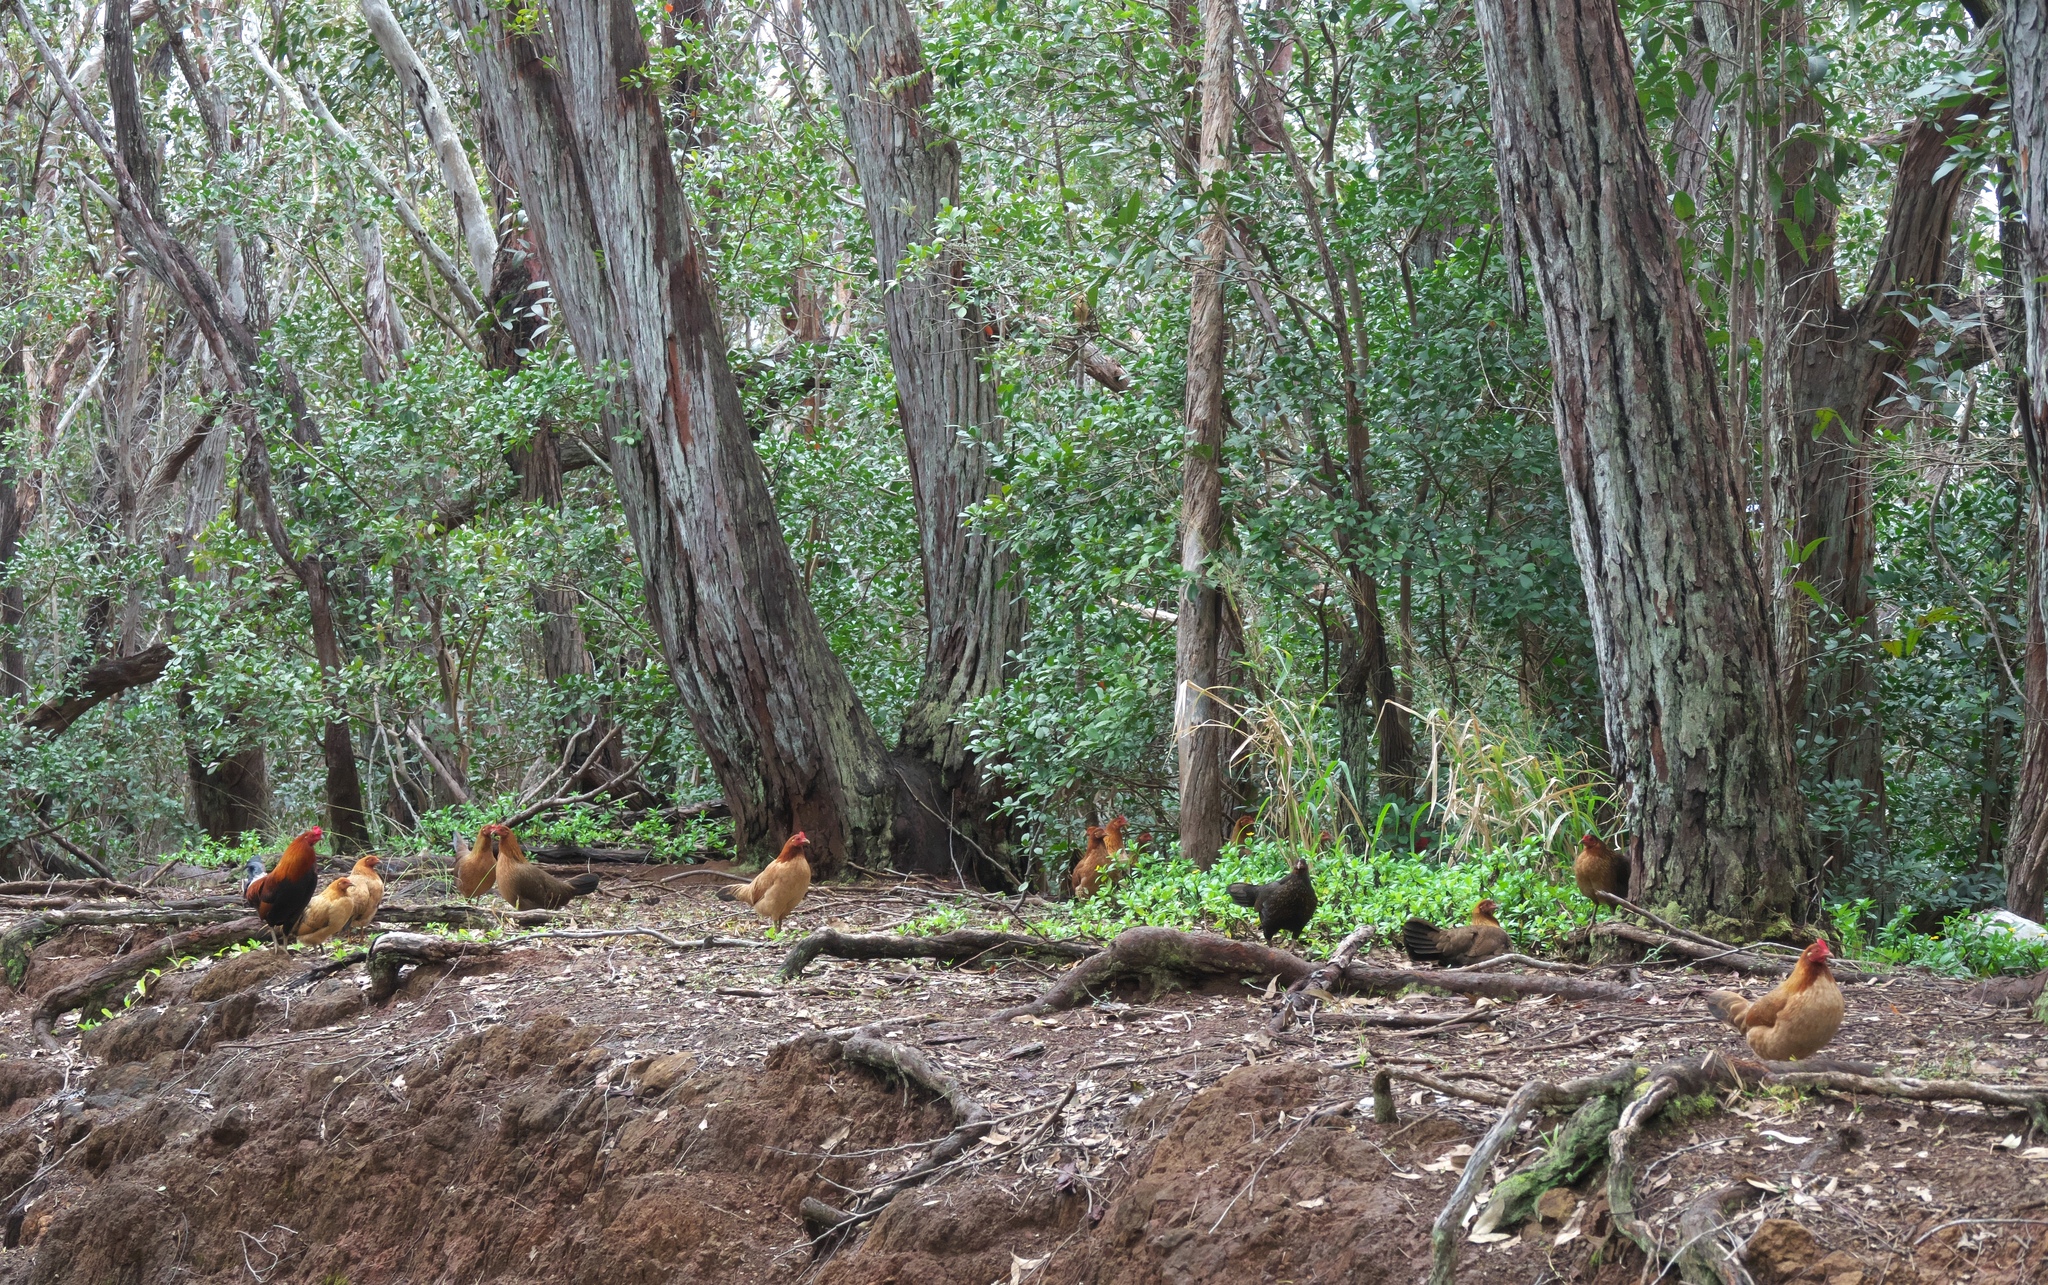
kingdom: Animalia
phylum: Chordata
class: Aves
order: Galliformes
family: Phasianidae
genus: Gallus
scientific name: Gallus gallus
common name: Red junglefowl
